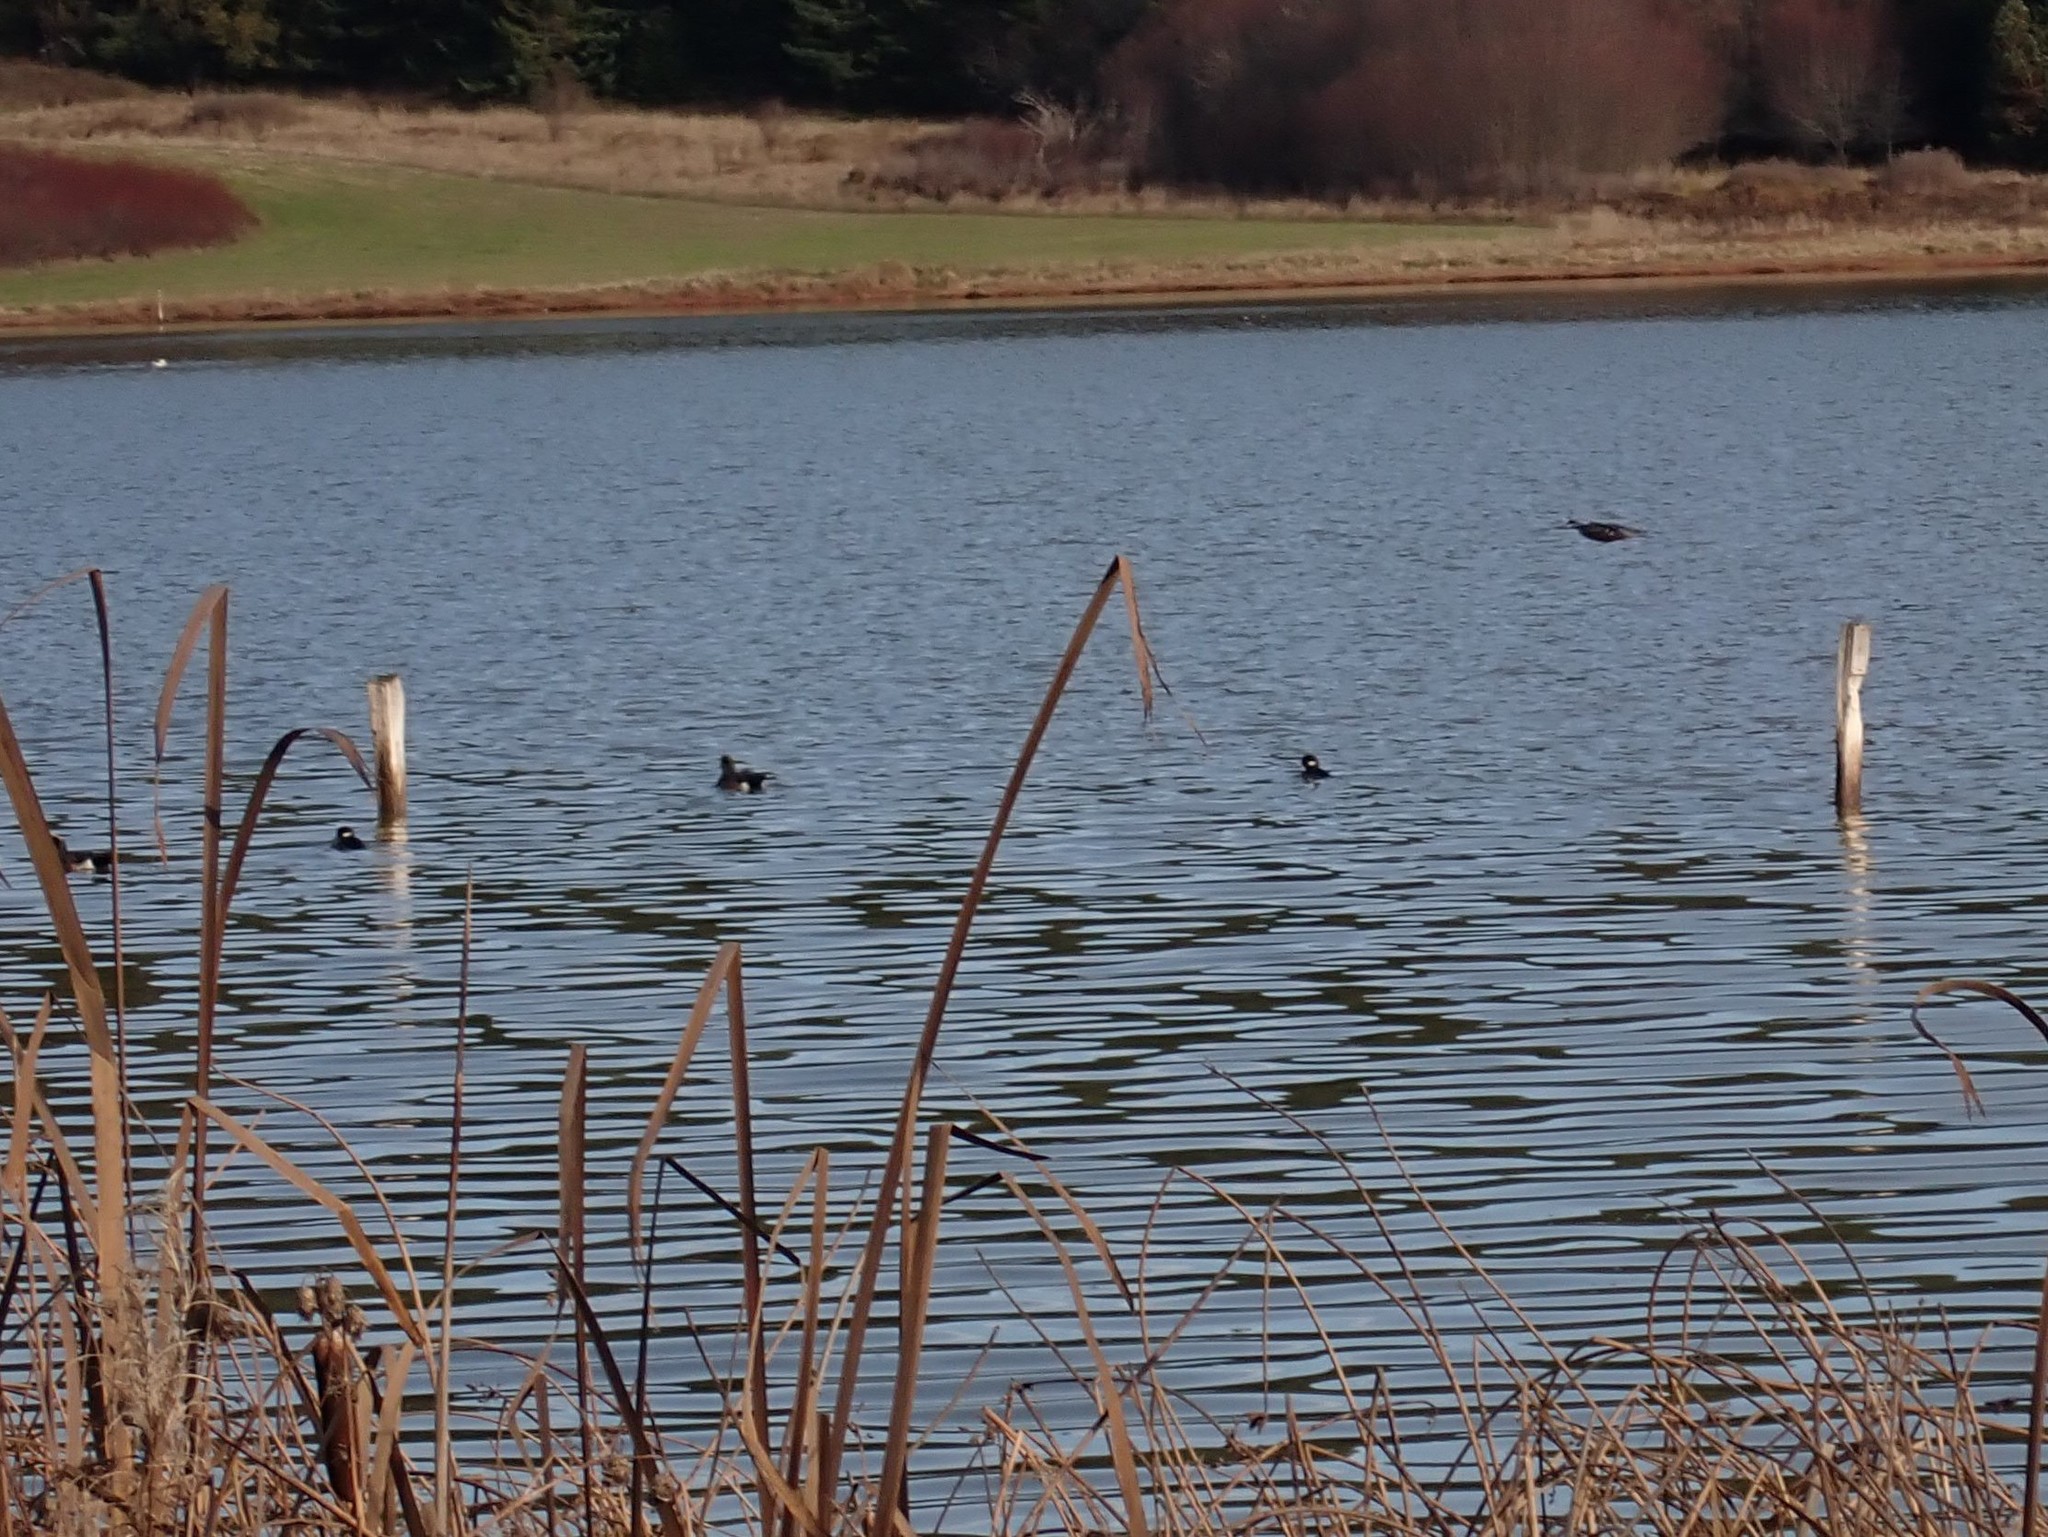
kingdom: Animalia
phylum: Chordata
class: Aves
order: Anseriformes
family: Anatidae
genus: Bucephala
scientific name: Bucephala albeola
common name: Bufflehead
